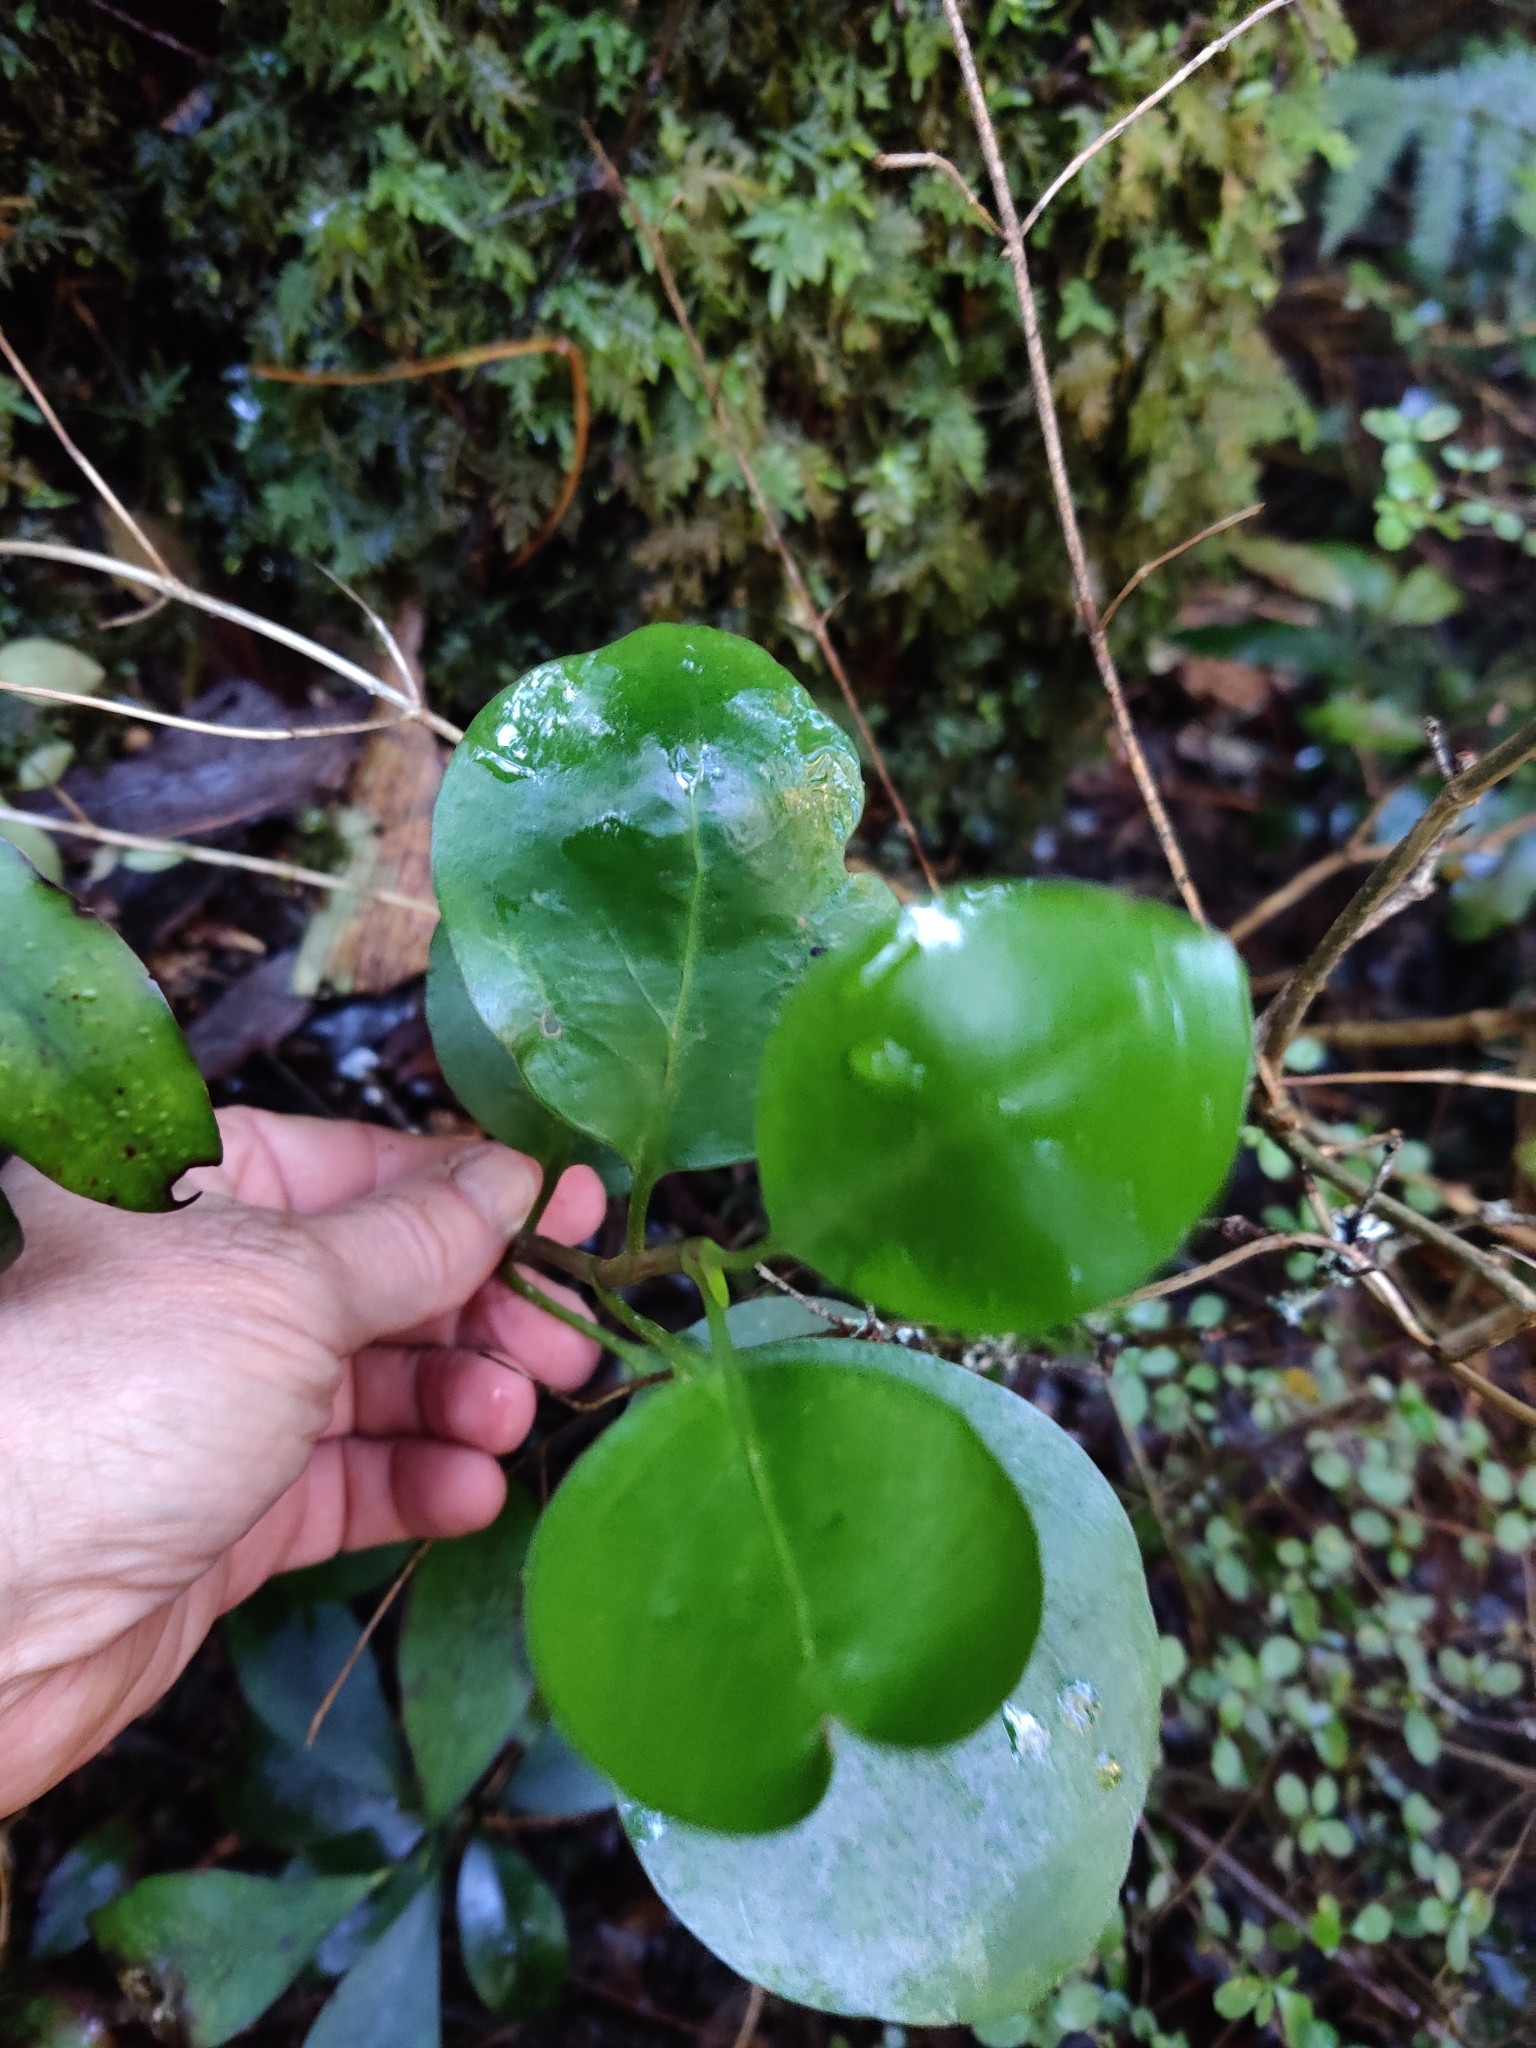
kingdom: Plantae
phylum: Tracheophyta
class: Magnoliopsida
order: Apiales
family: Griseliniaceae
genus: Griselinia
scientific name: Griselinia littoralis
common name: New zealand broadleaf
